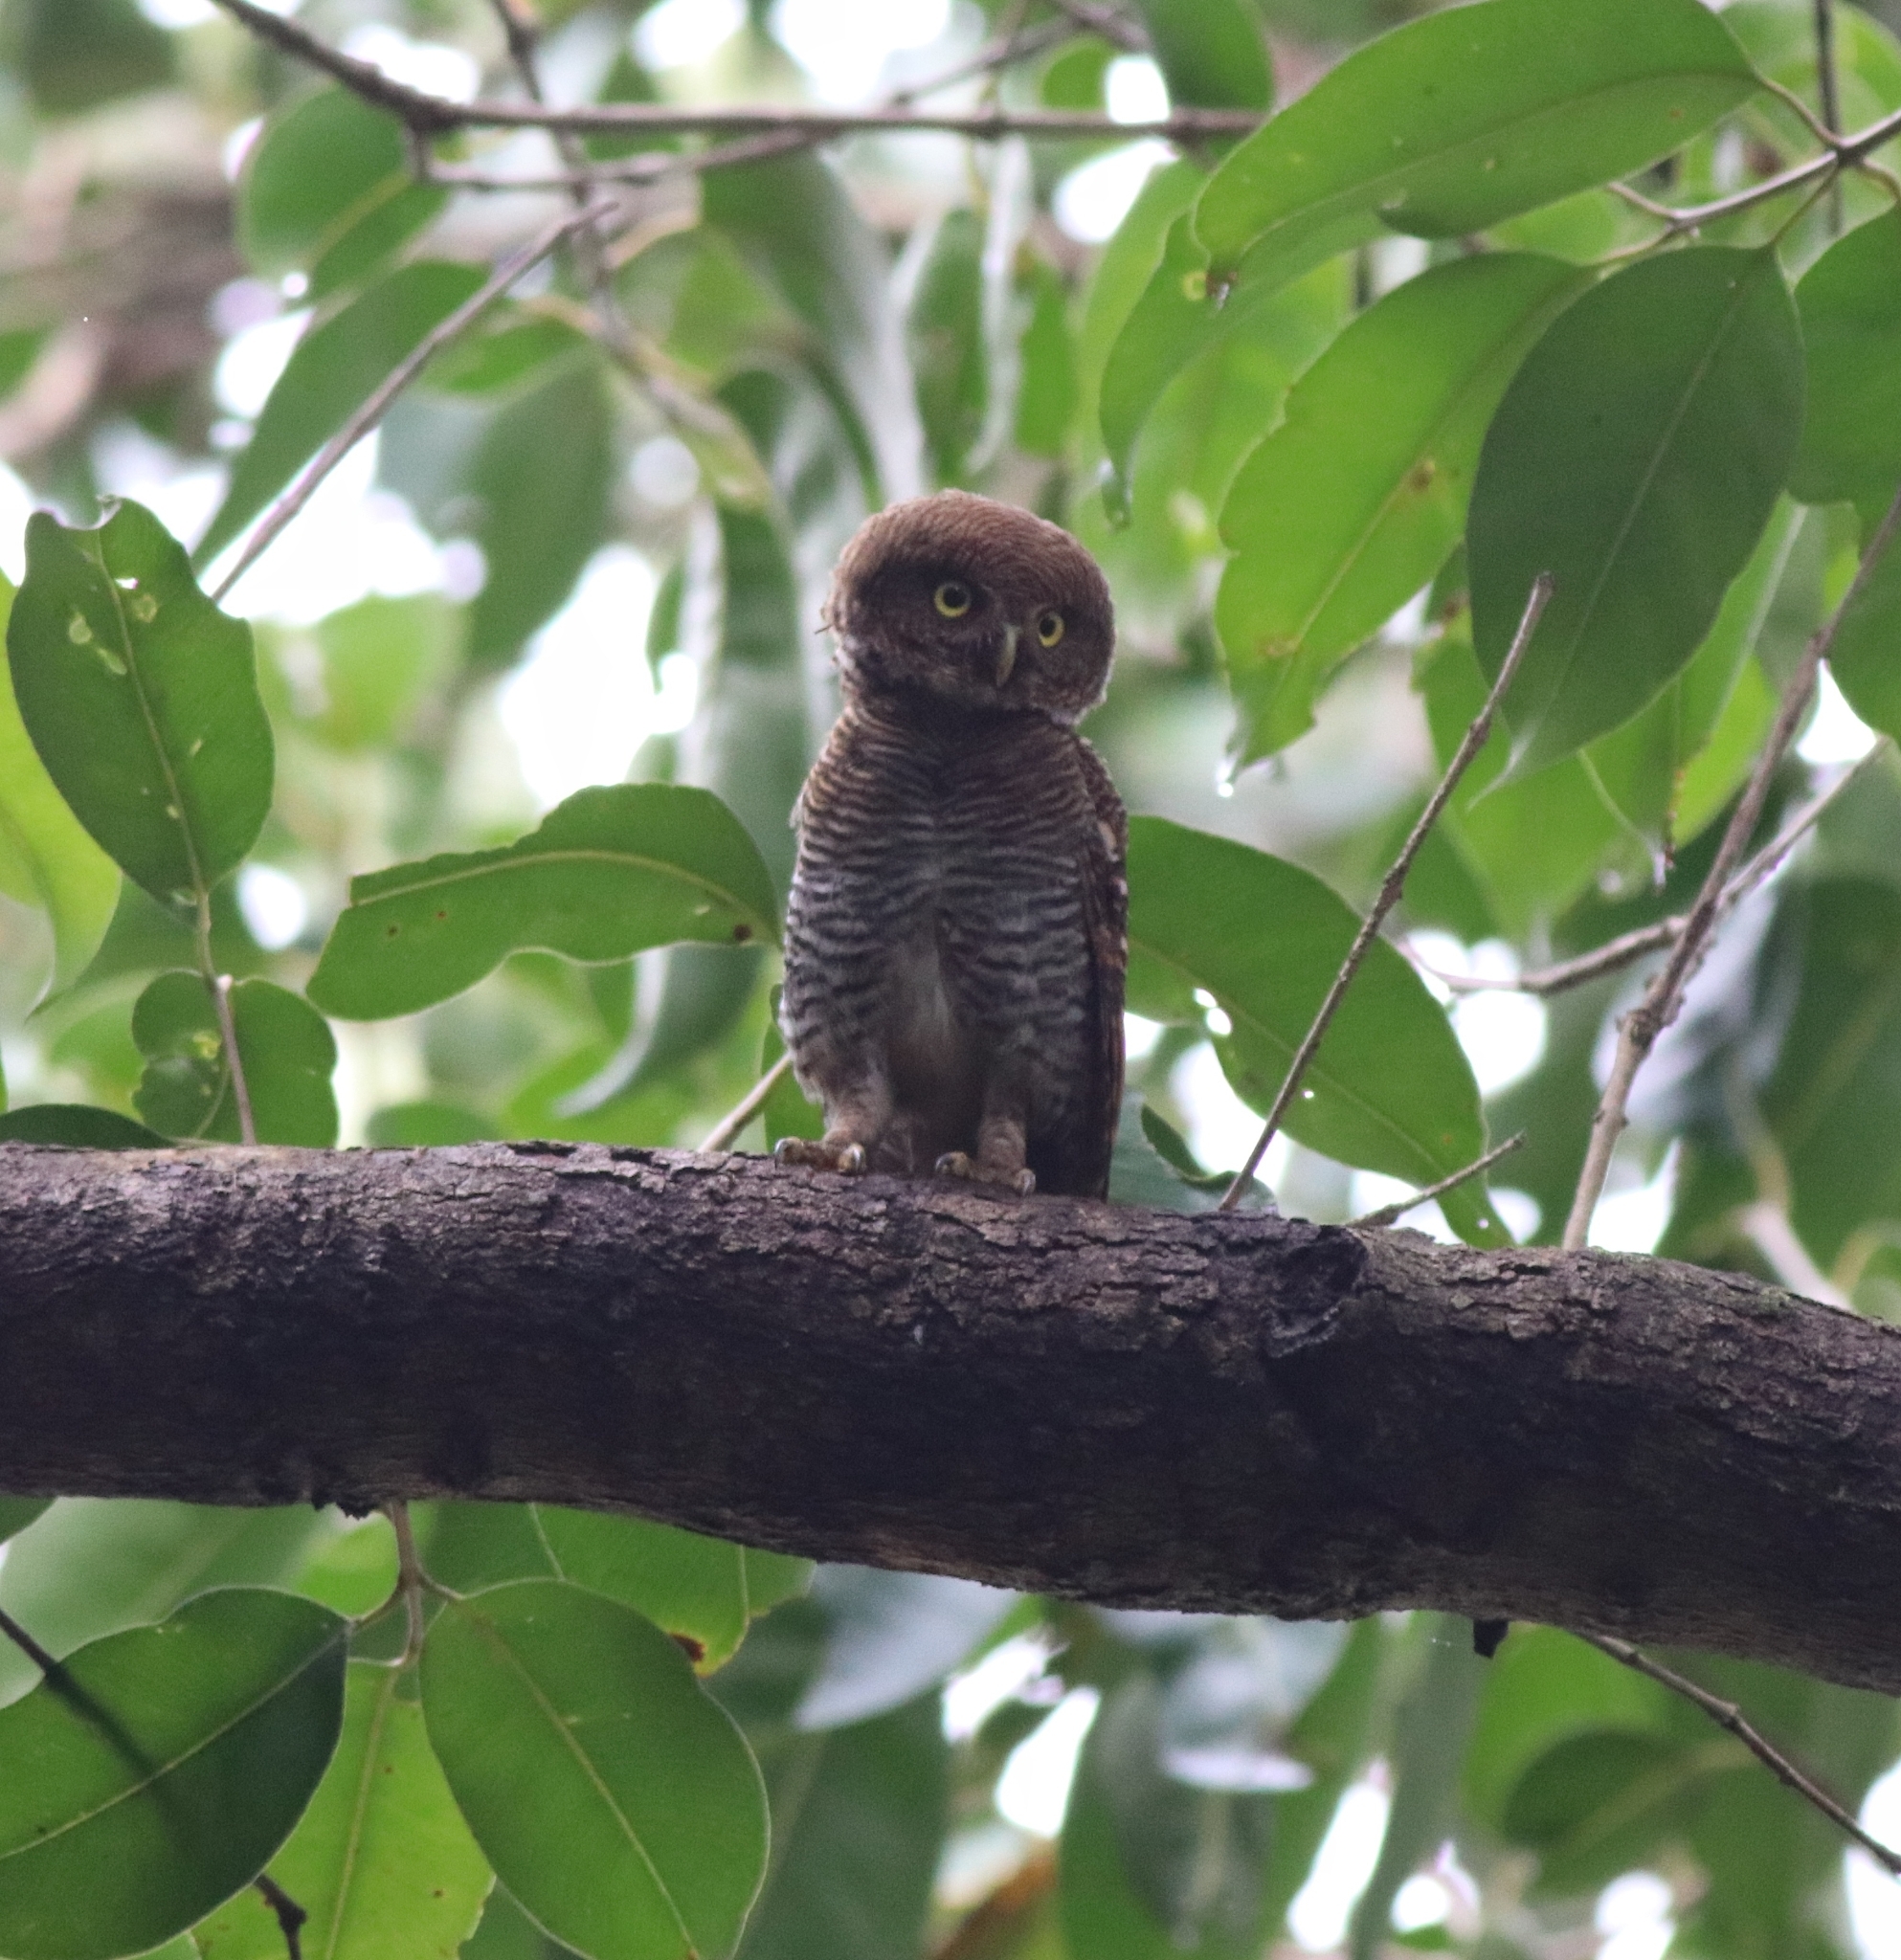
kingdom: Animalia
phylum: Chordata
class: Aves
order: Strigiformes
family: Strigidae
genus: Glaucidium
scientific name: Glaucidium radiatum
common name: Jungle owlet
